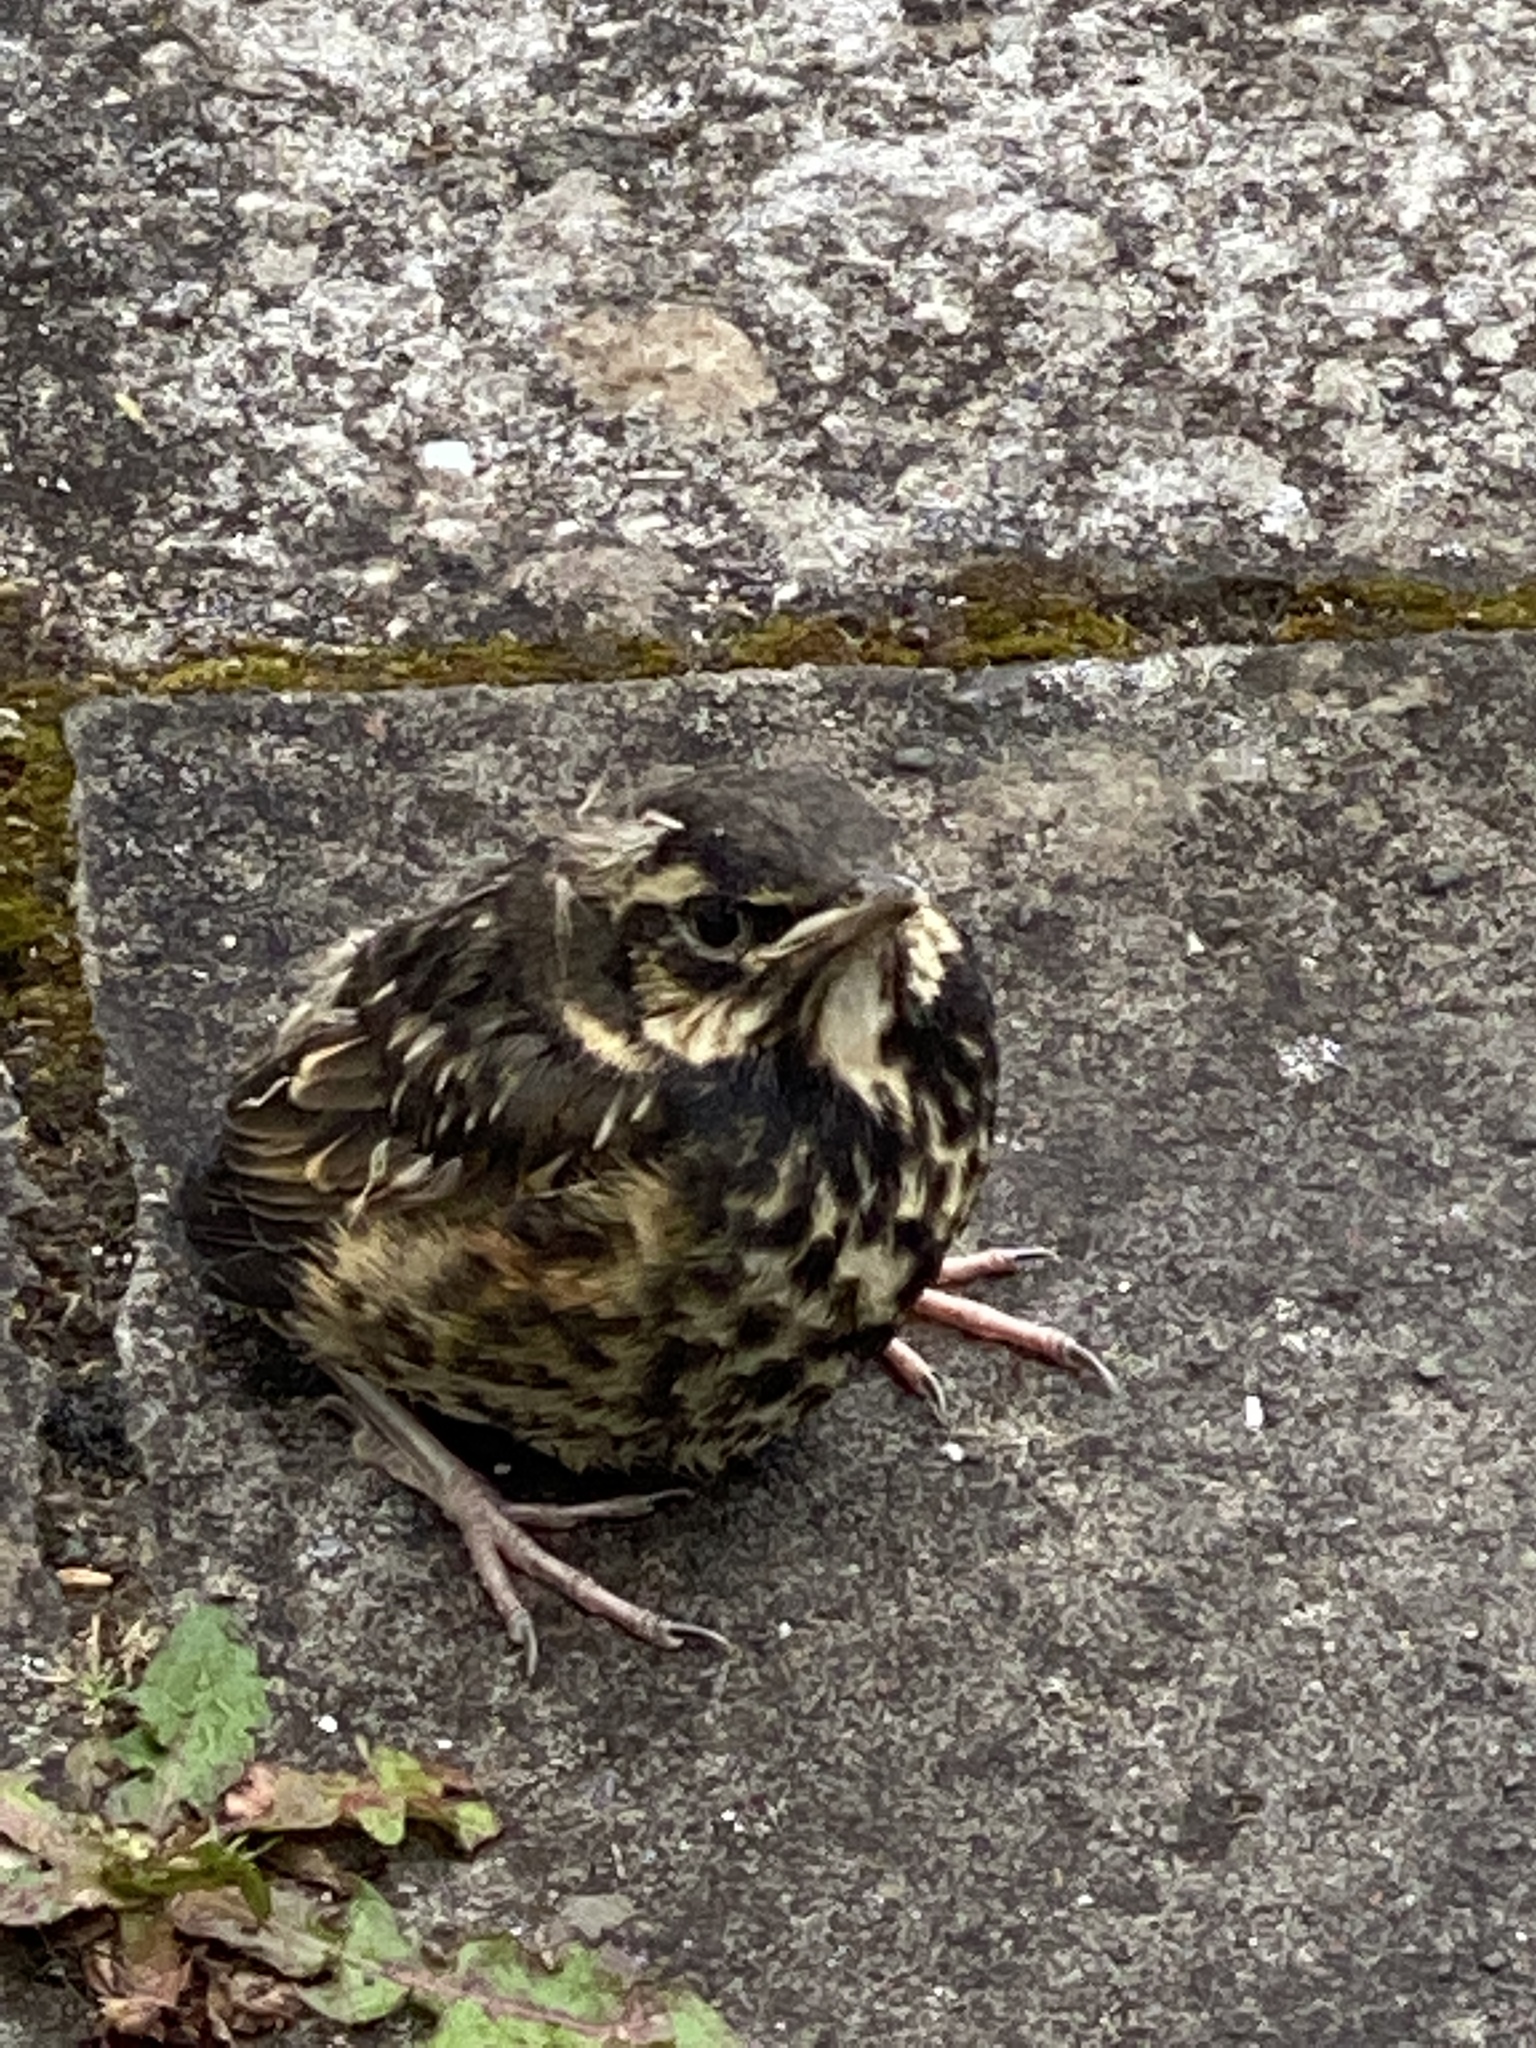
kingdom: Animalia
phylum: Chordata
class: Aves
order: Passeriformes
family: Turdidae
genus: Turdus
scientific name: Turdus iliacus
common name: Redwing
